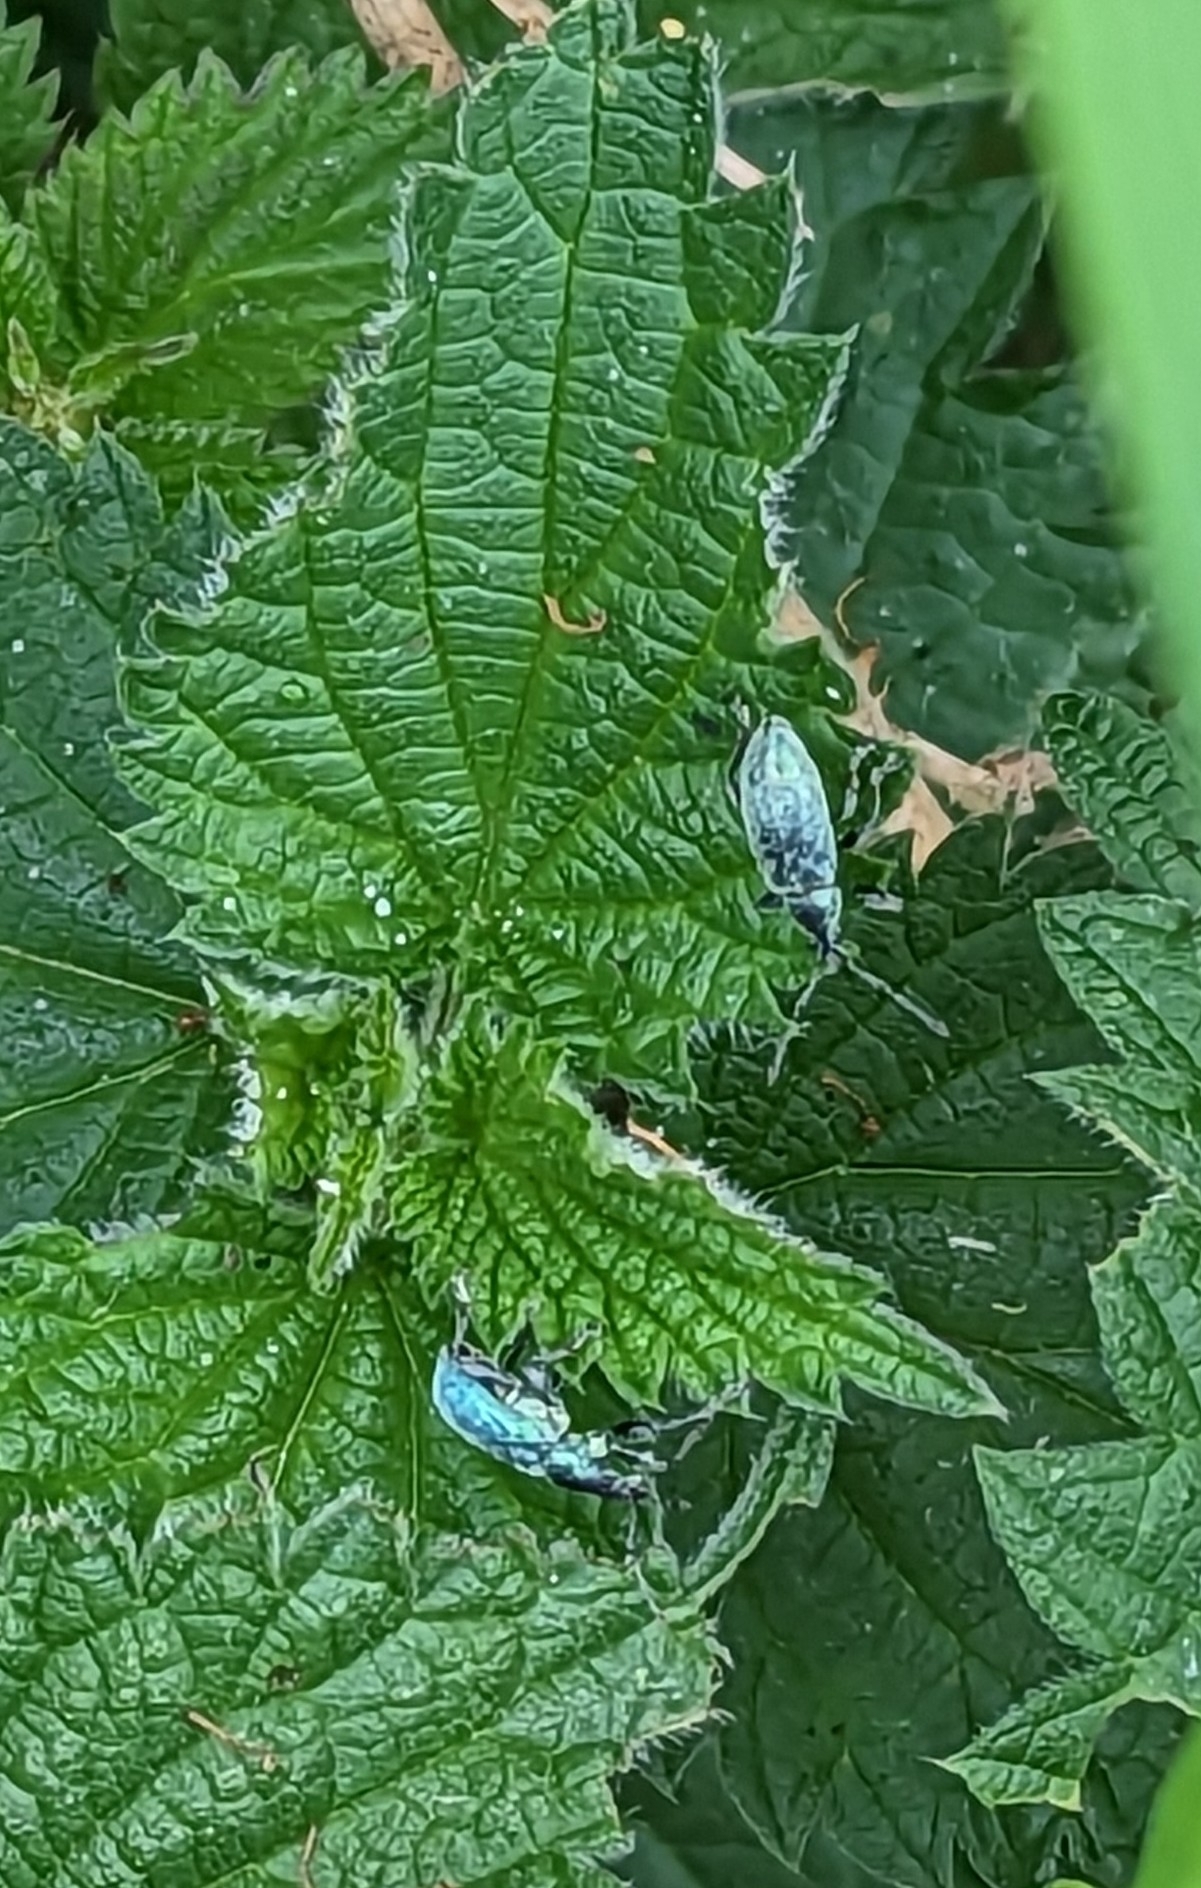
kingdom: Animalia
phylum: Arthropoda
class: Insecta
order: Coleoptera
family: Curculionidae
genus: Phyllobius
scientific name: Phyllobius pomaceus
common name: Green nettle weevil
